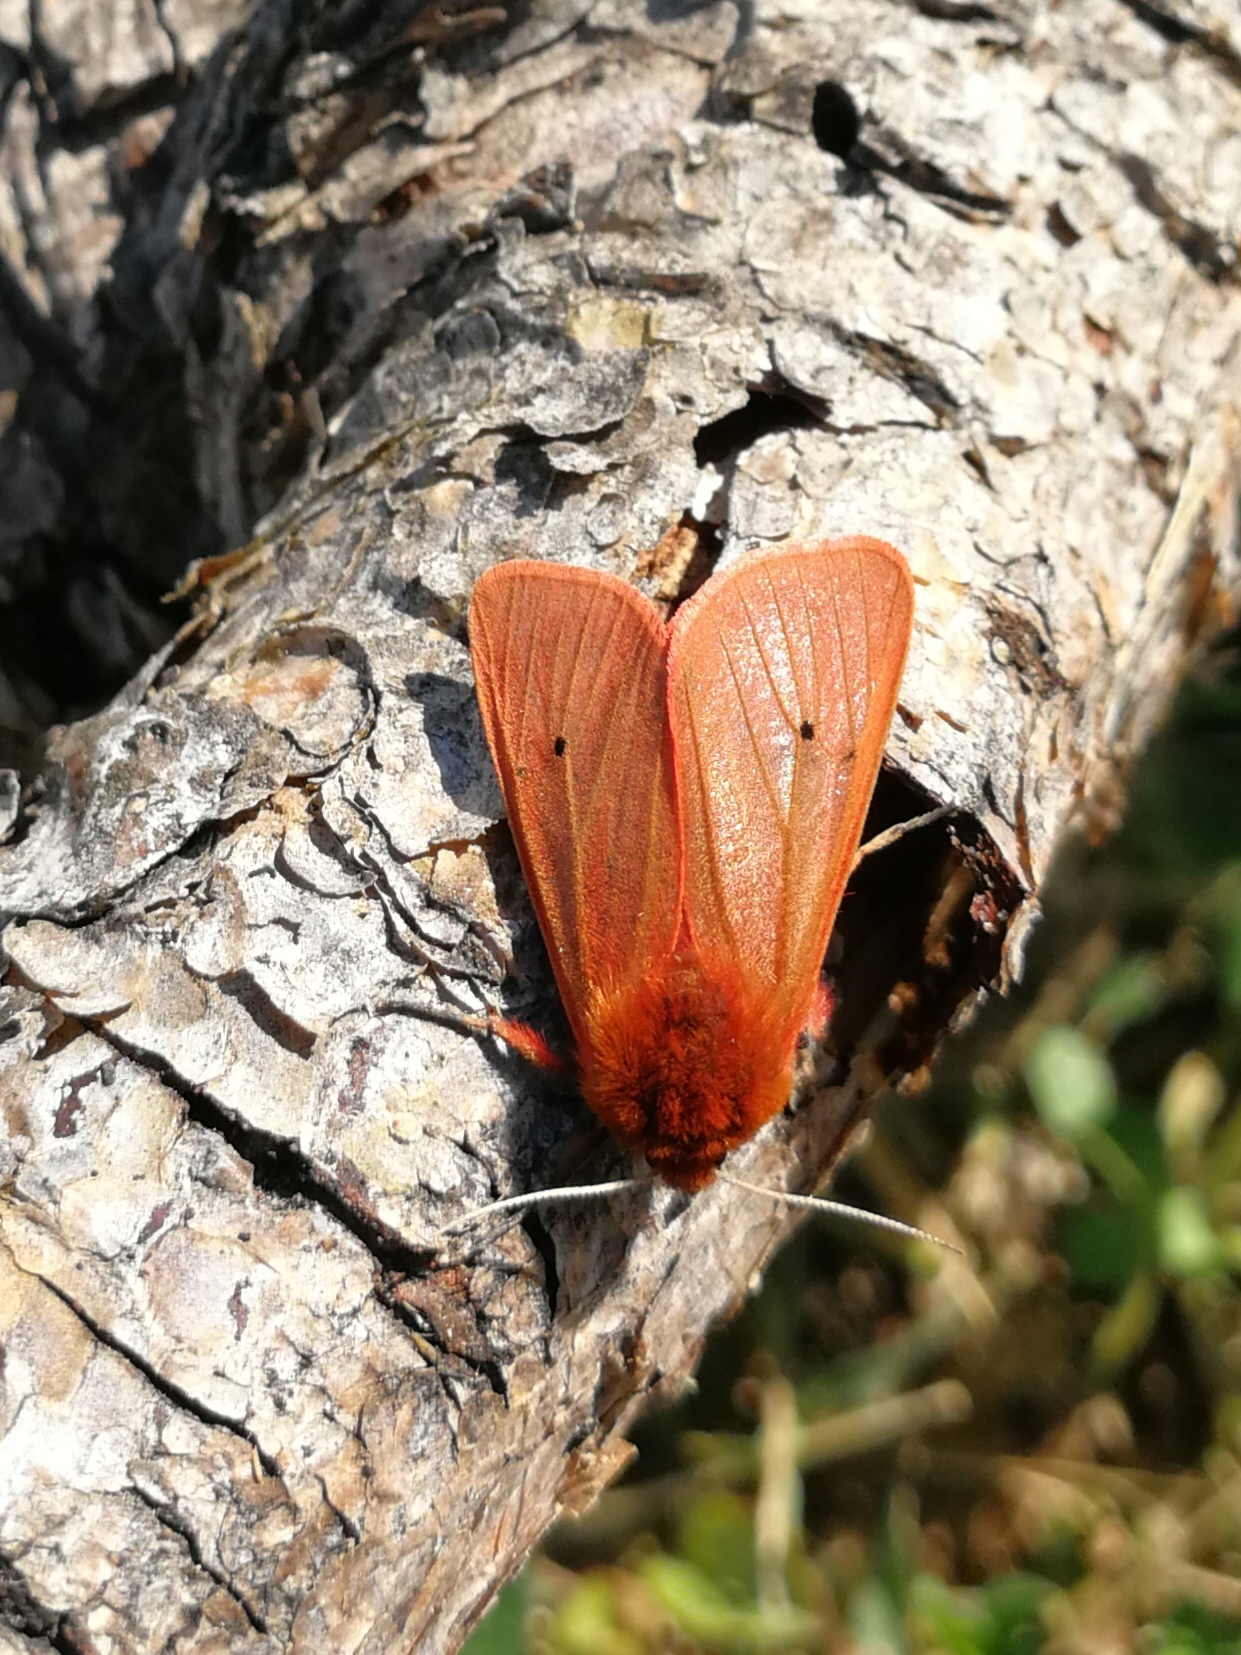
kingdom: Animalia
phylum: Arthropoda
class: Insecta
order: Lepidoptera
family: Erebidae
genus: Phragmatobia
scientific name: Phragmatobia fuliginosa
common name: Ruby tiger
